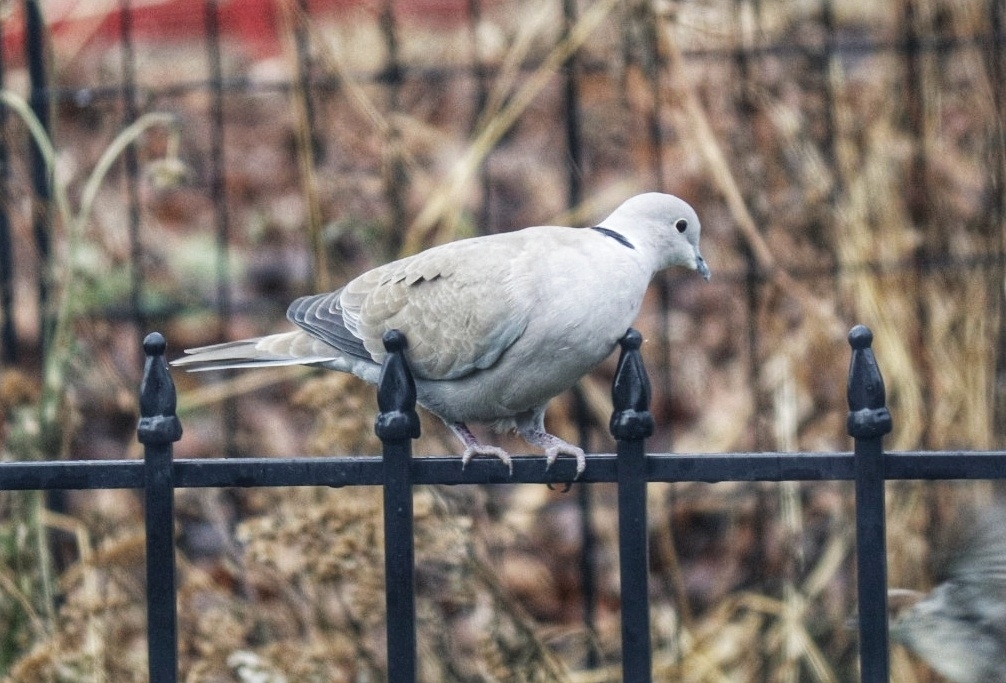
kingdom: Animalia
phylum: Chordata
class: Aves
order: Columbiformes
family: Columbidae
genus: Streptopelia
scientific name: Streptopelia decaocto
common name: Eurasian collared dove
